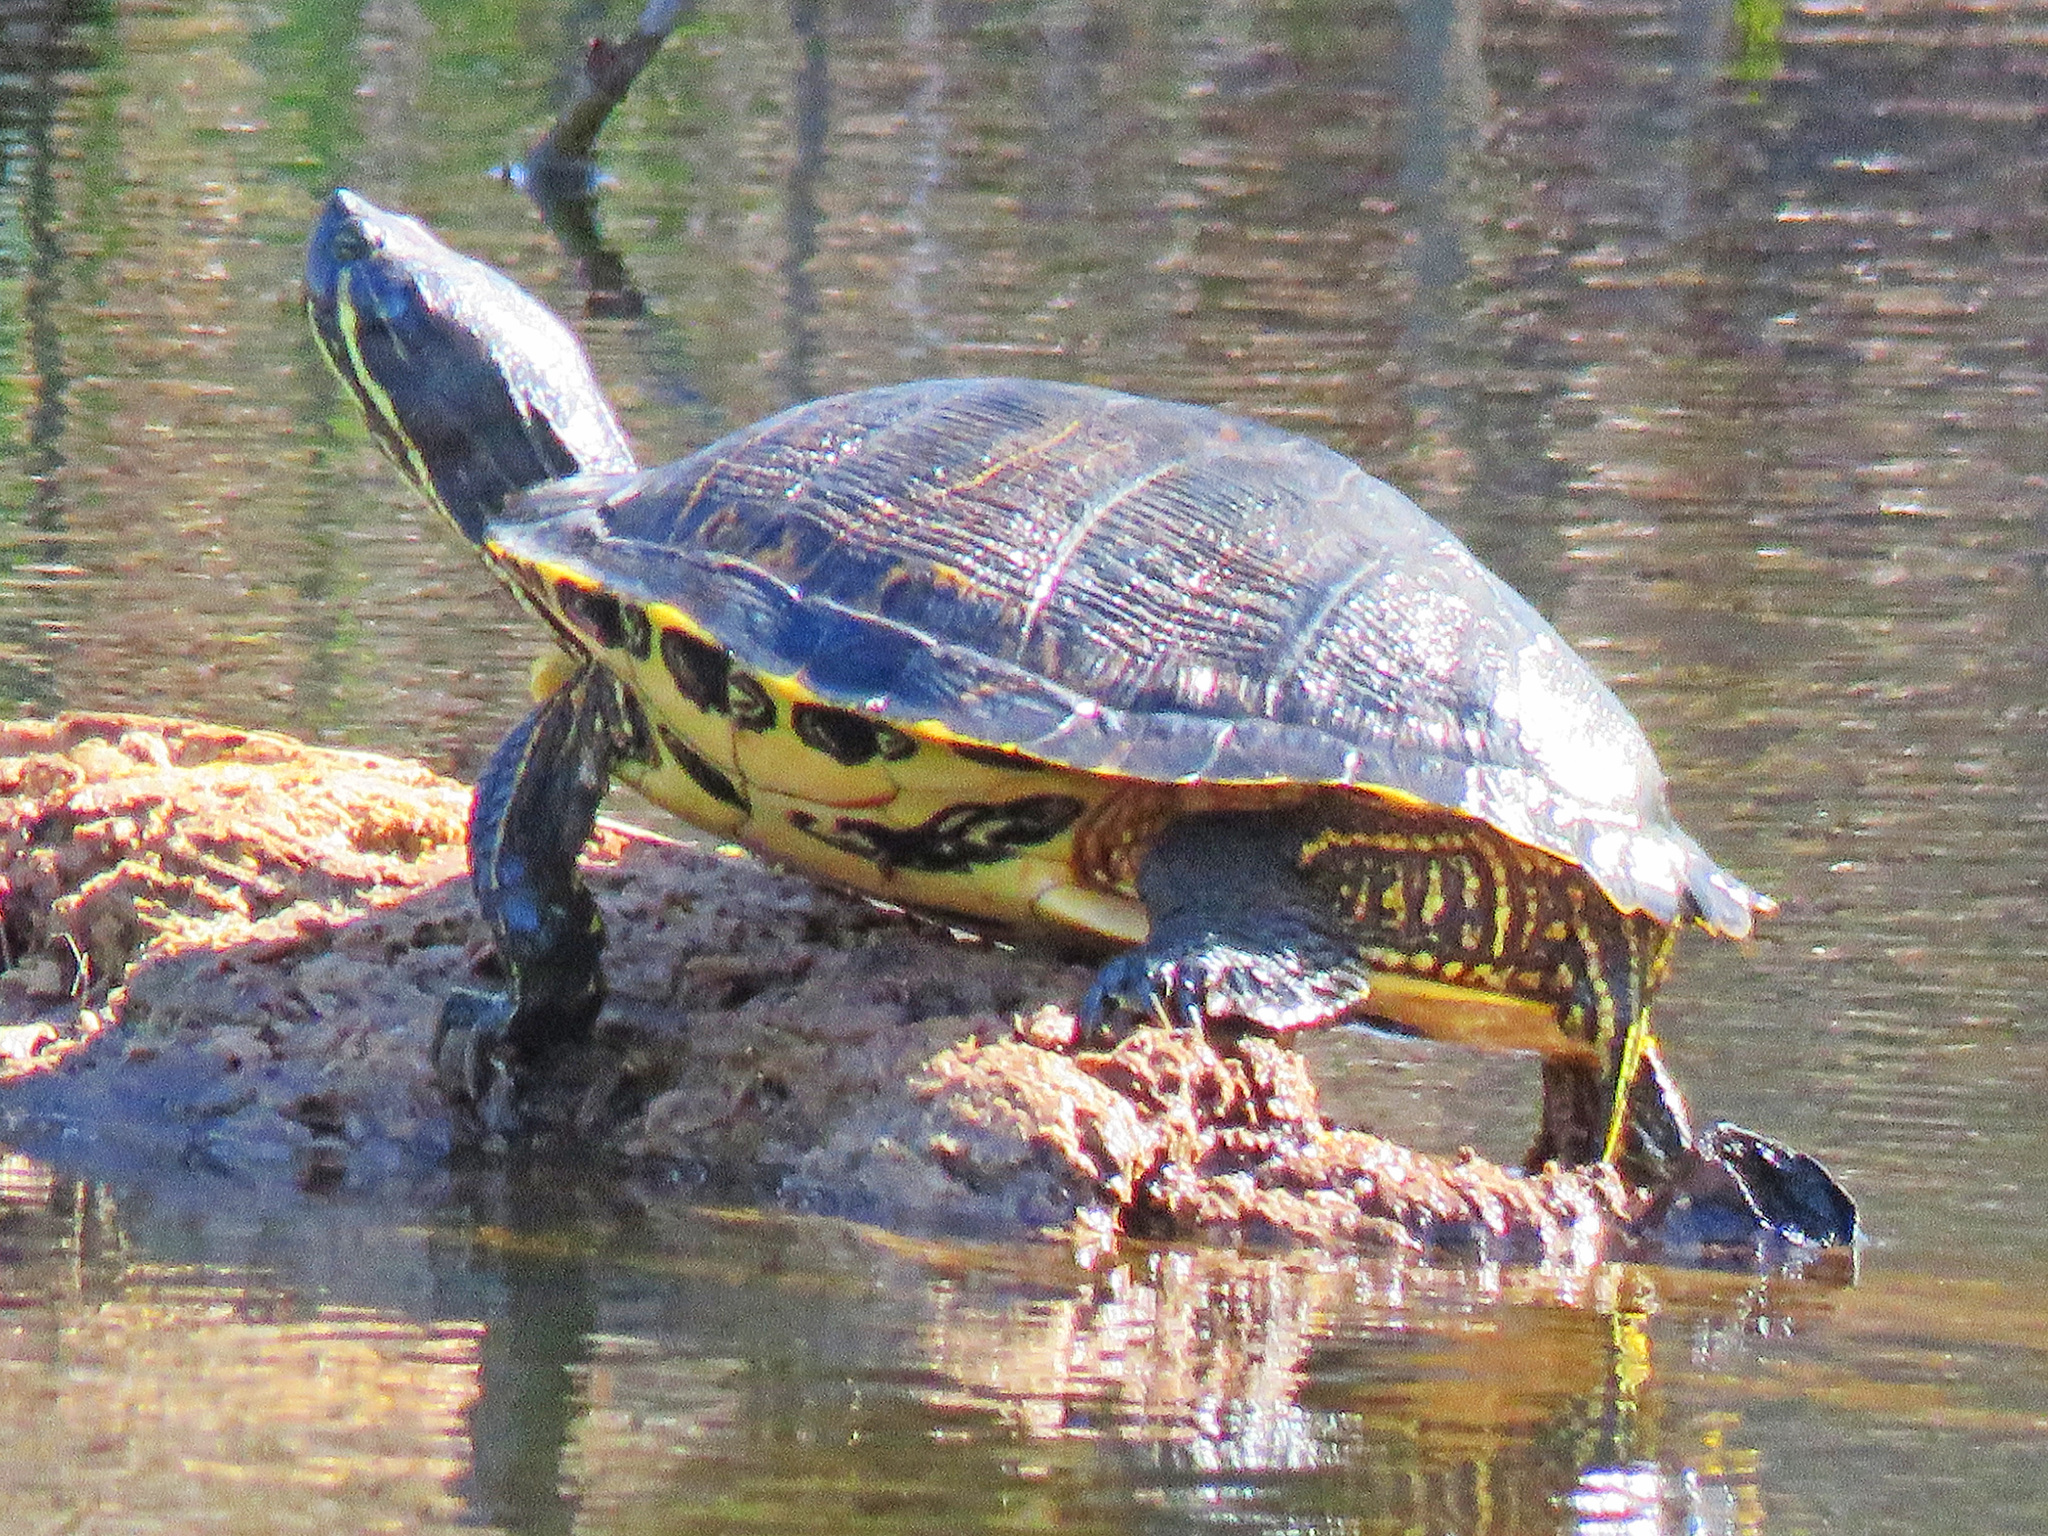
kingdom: Animalia
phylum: Chordata
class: Testudines
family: Emydidae
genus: Trachemys
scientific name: Trachemys scripta
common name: Slider
